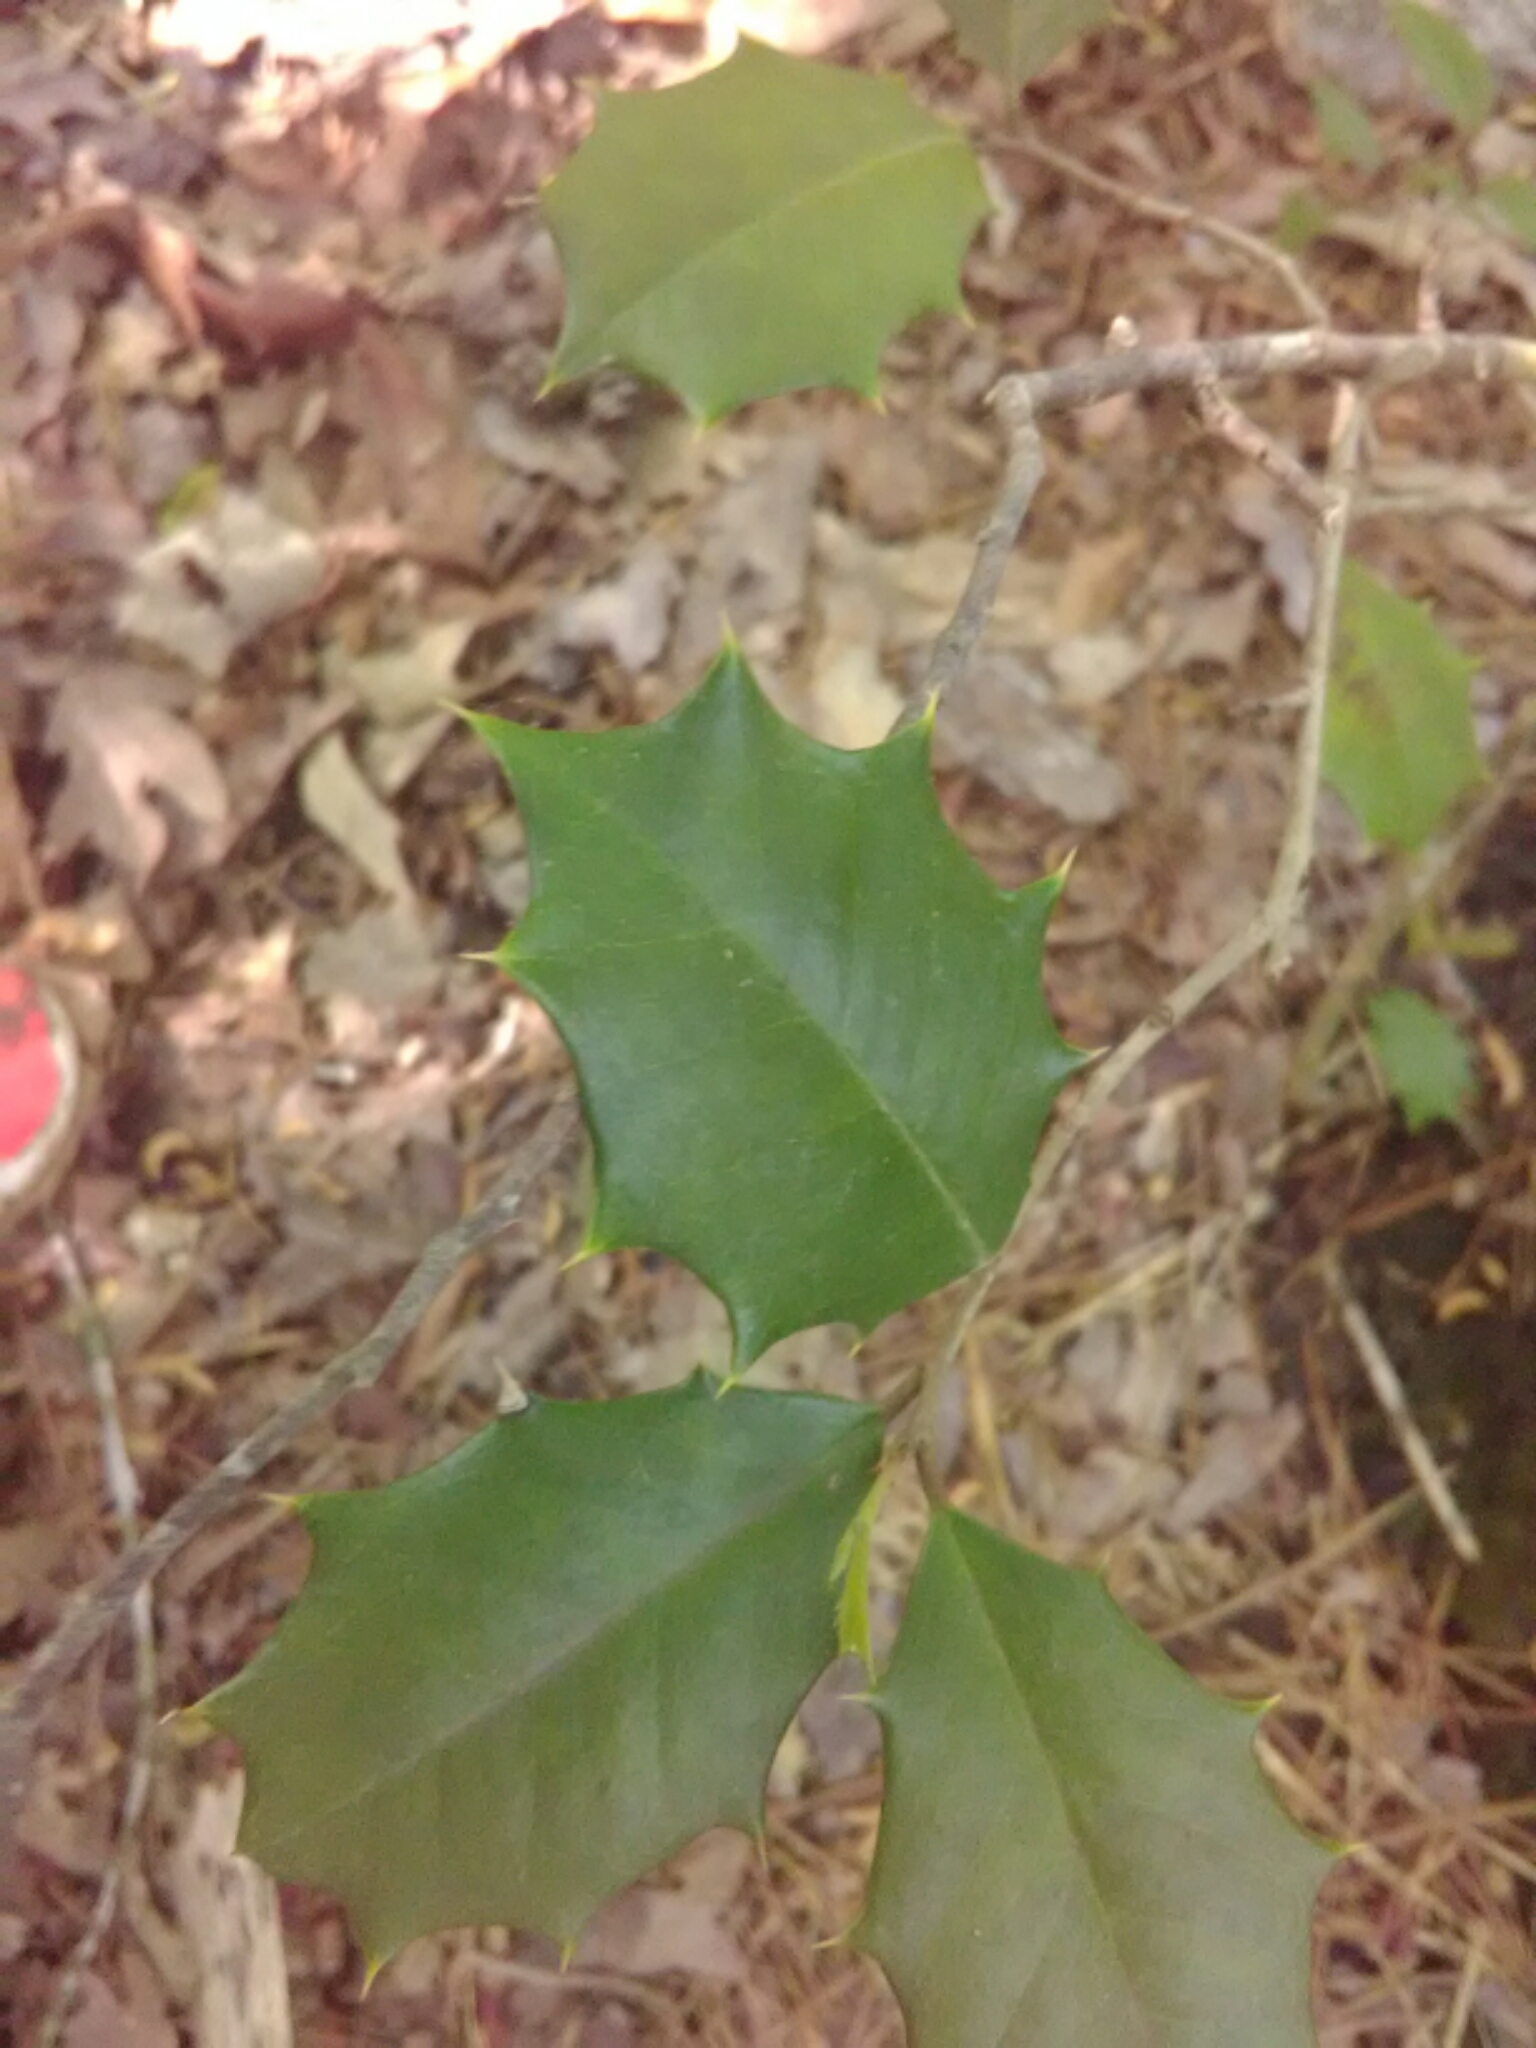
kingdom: Plantae
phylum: Tracheophyta
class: Magnoliopsida
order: Aquifoliales
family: Aquifoliaceae
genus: Ilex
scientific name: Ilex opaca
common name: American holly
